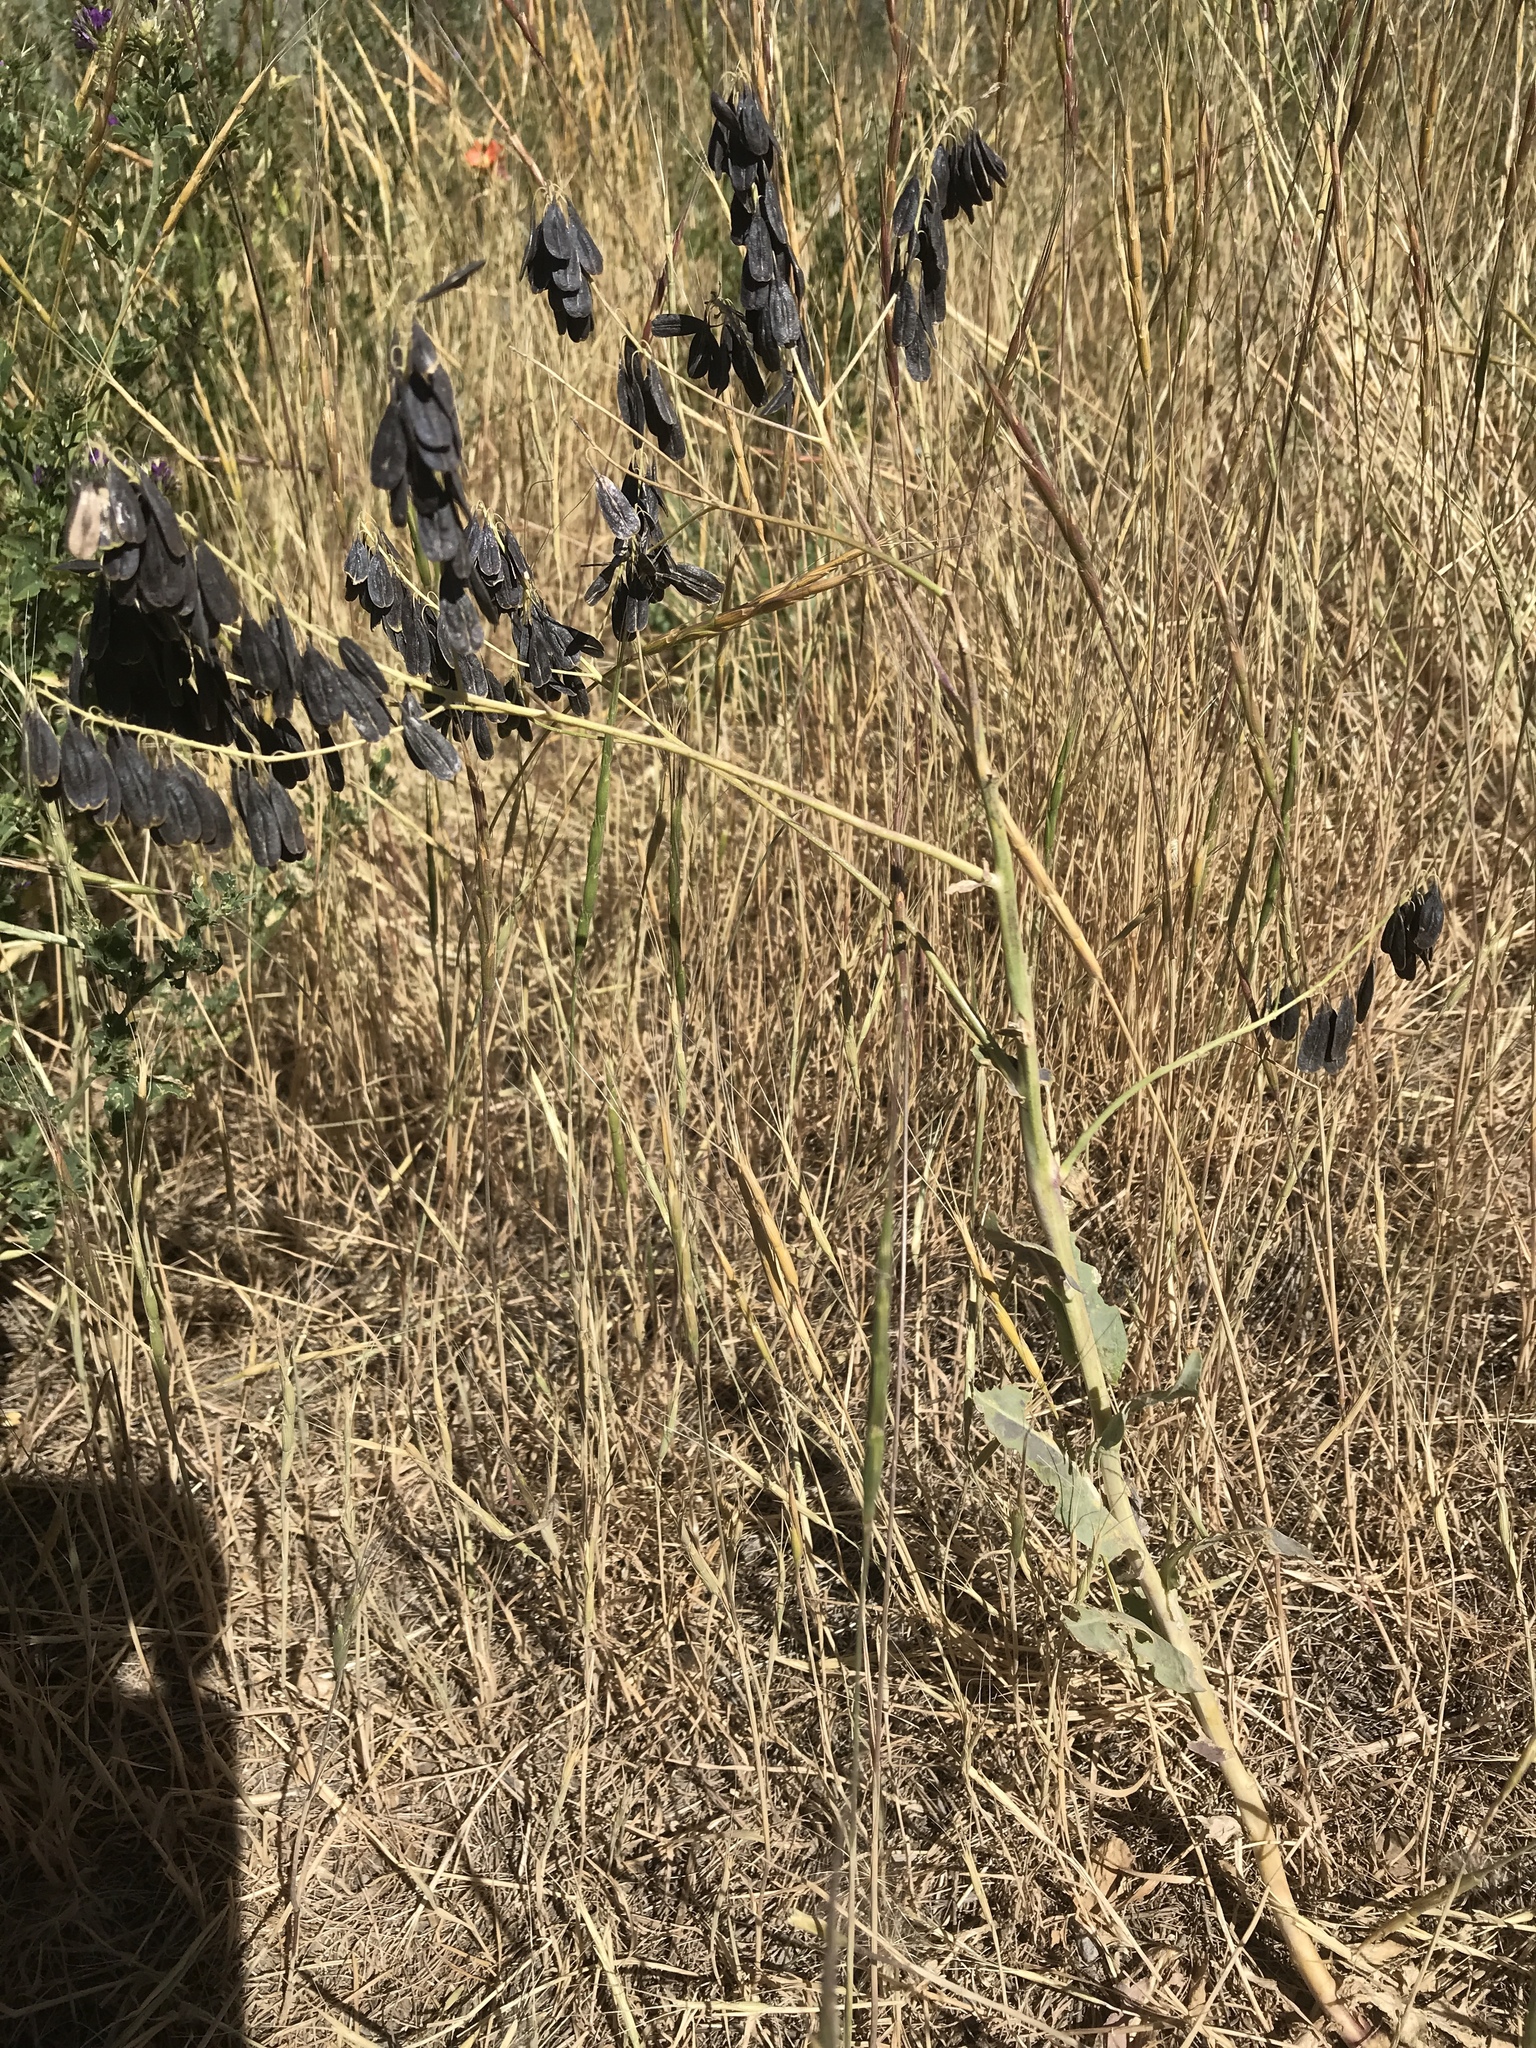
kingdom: Plantae
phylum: Tracheophyta
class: Magnoliopsida
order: Brassicales
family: Brassicaceae
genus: Isatis
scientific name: Isatis tinctoria
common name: Woad
